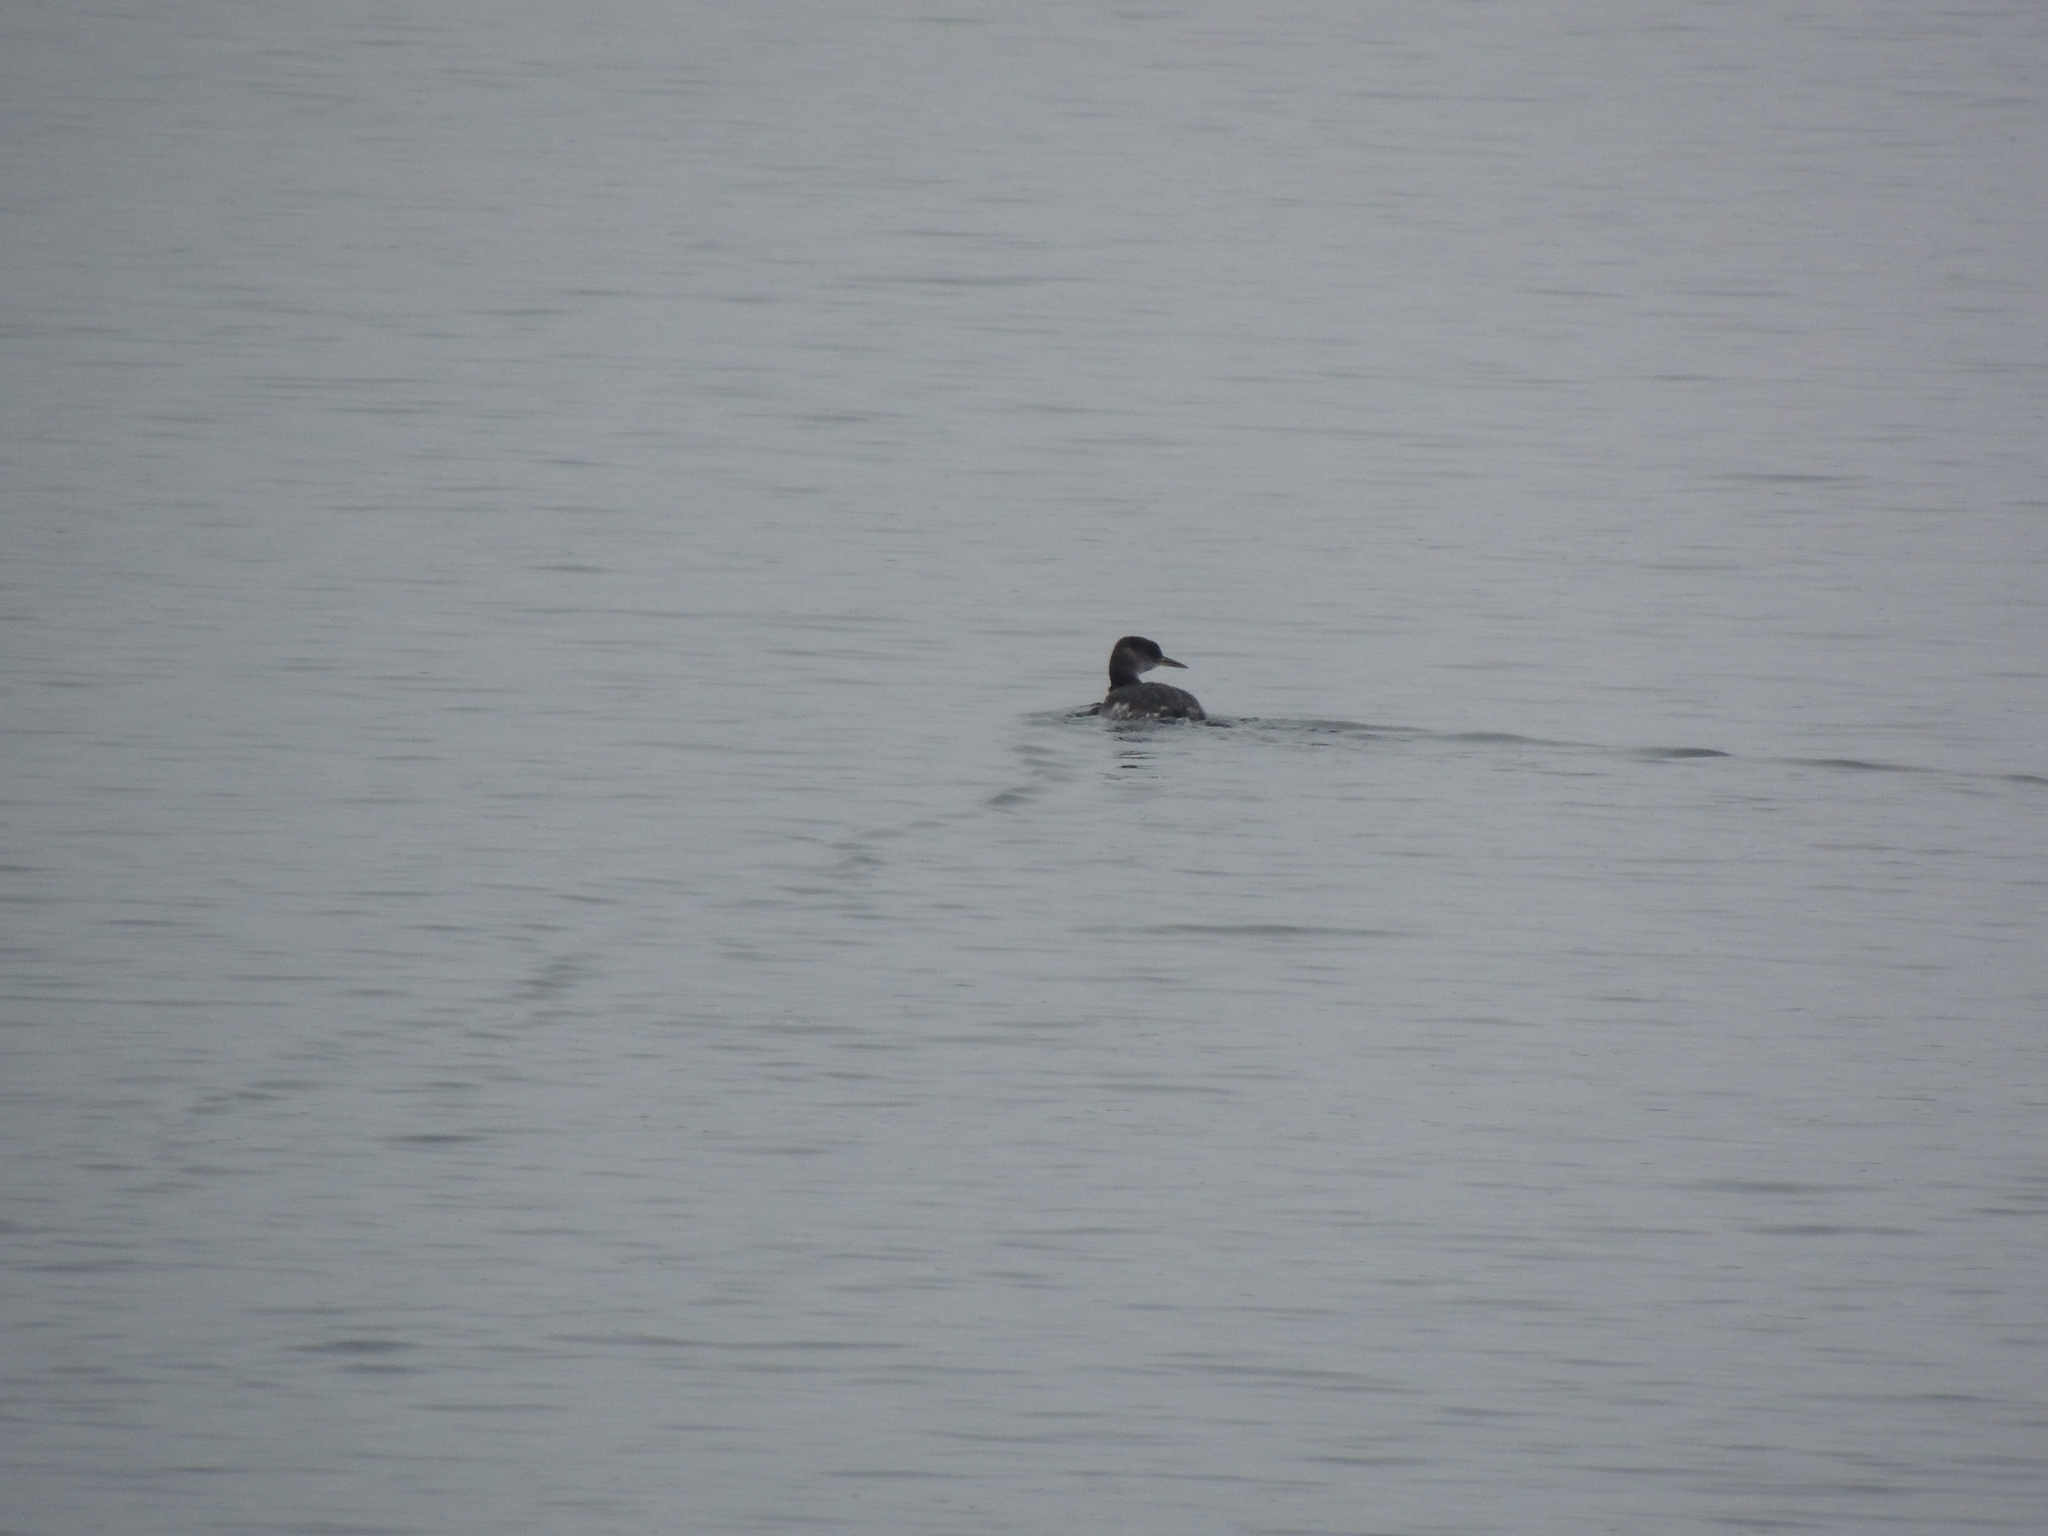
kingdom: Animalia
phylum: Chordata
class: Aves
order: Podicipediformes
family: Podicipedidae
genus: Podiceps
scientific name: Podiceps grisegena
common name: Red-necked grebe
